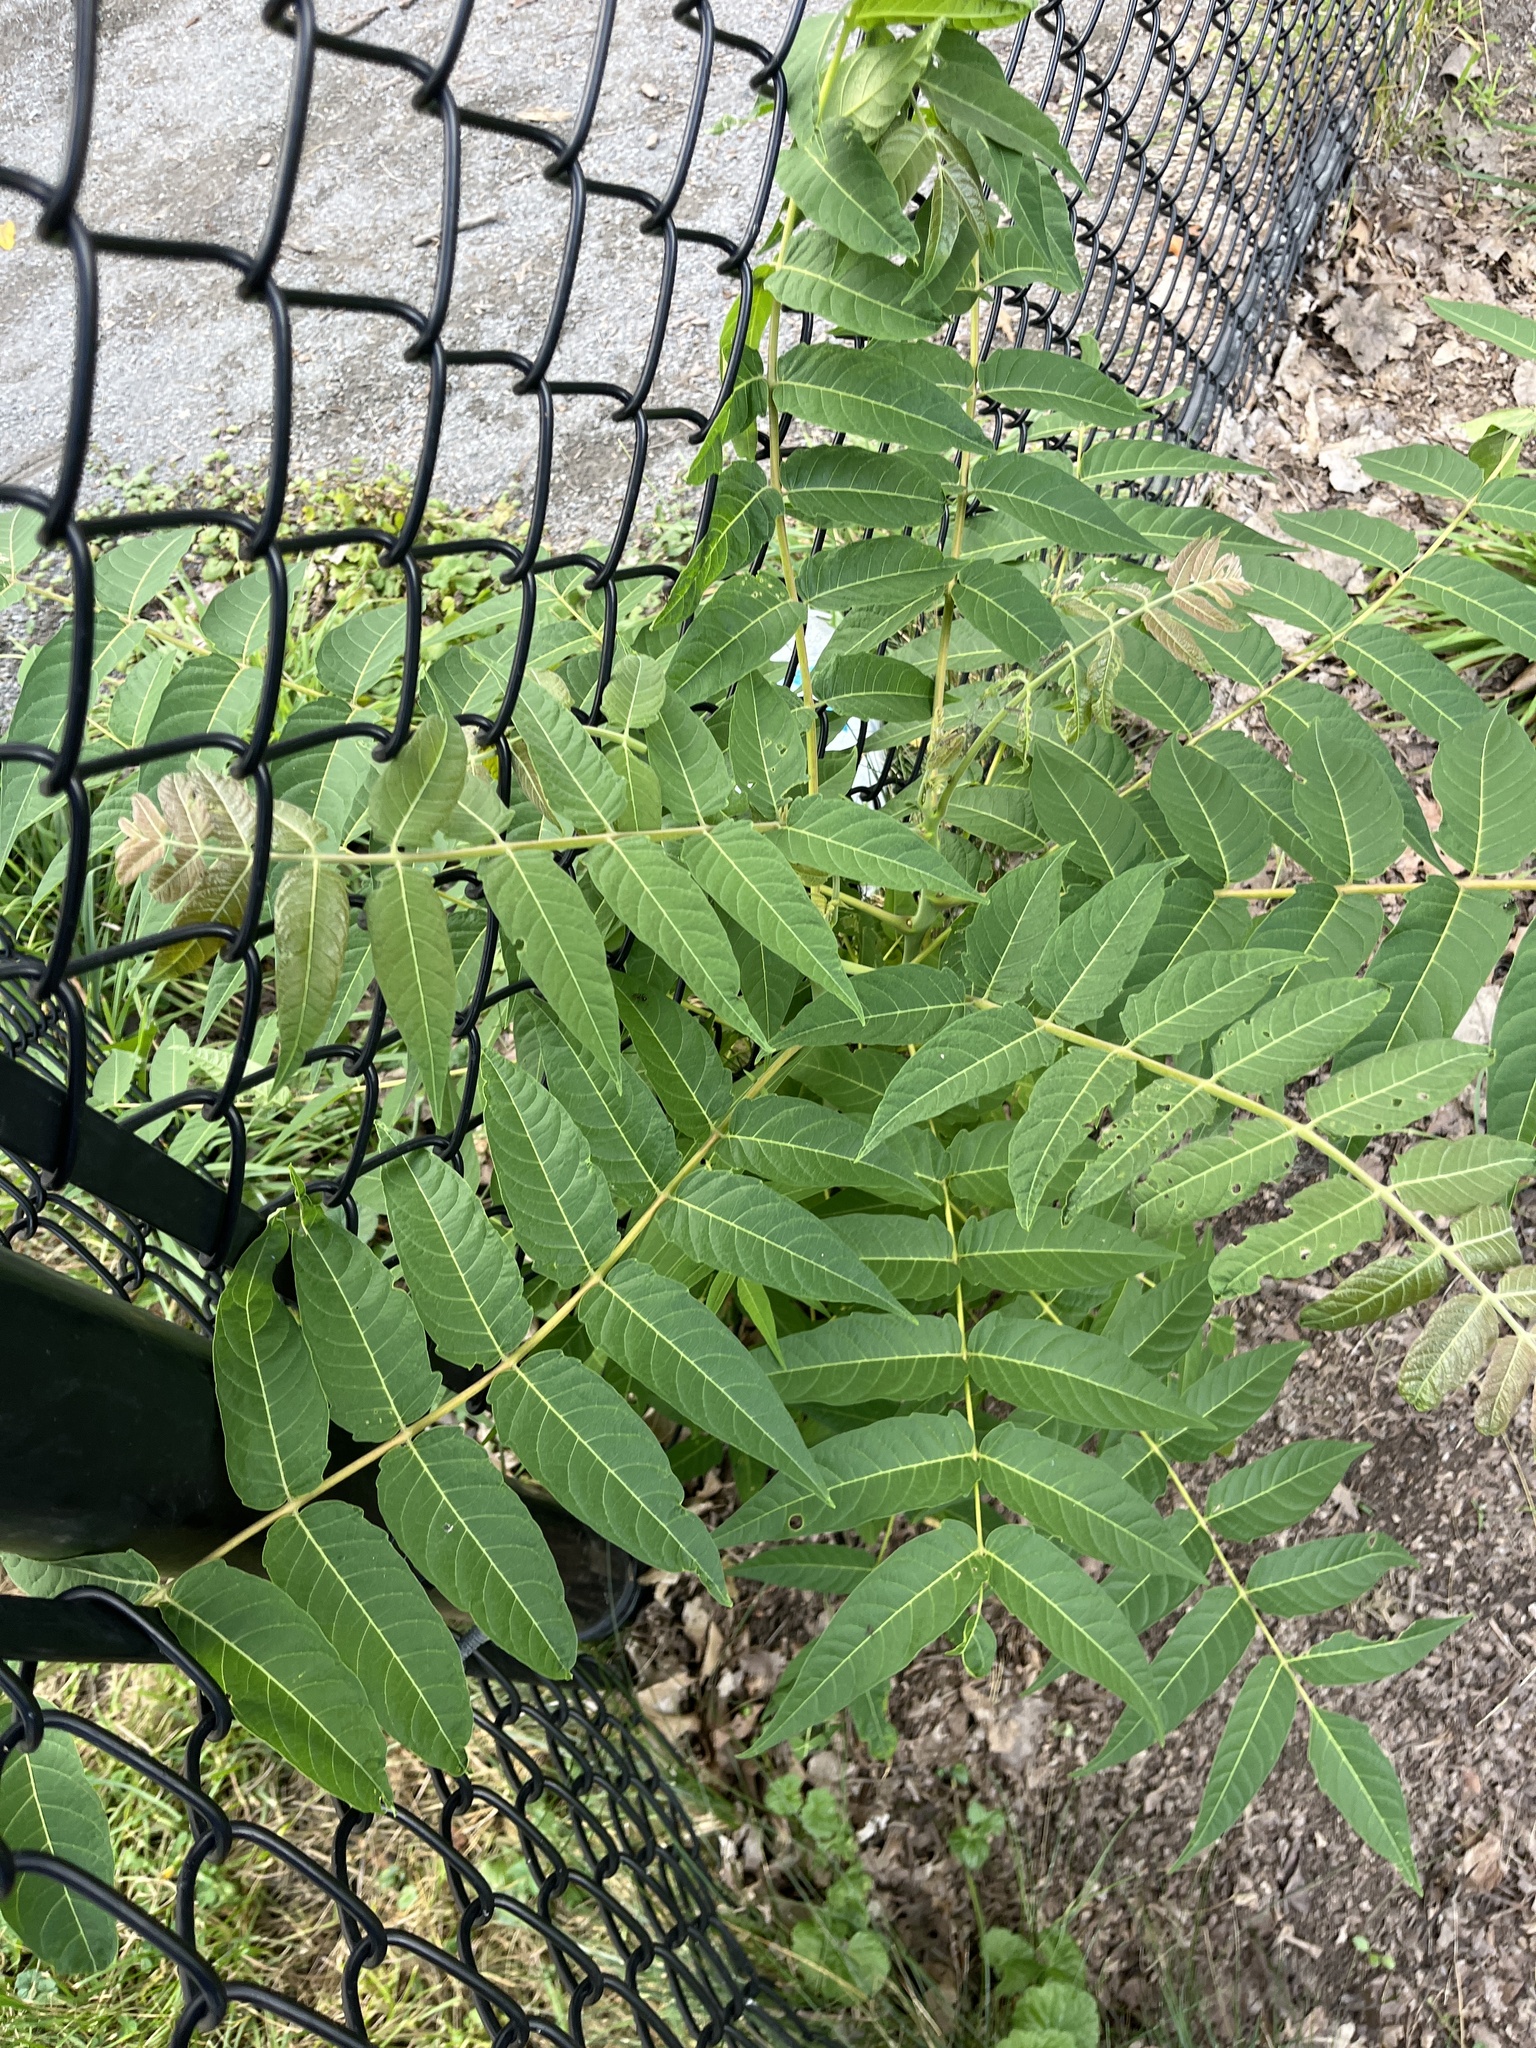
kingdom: Plantae
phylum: Tracheophyta
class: Magnoliopsida
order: Sapindales
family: Simaroubaceae
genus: Ailanthus
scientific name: Ailanthus altissima
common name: Tree-of-heaven
